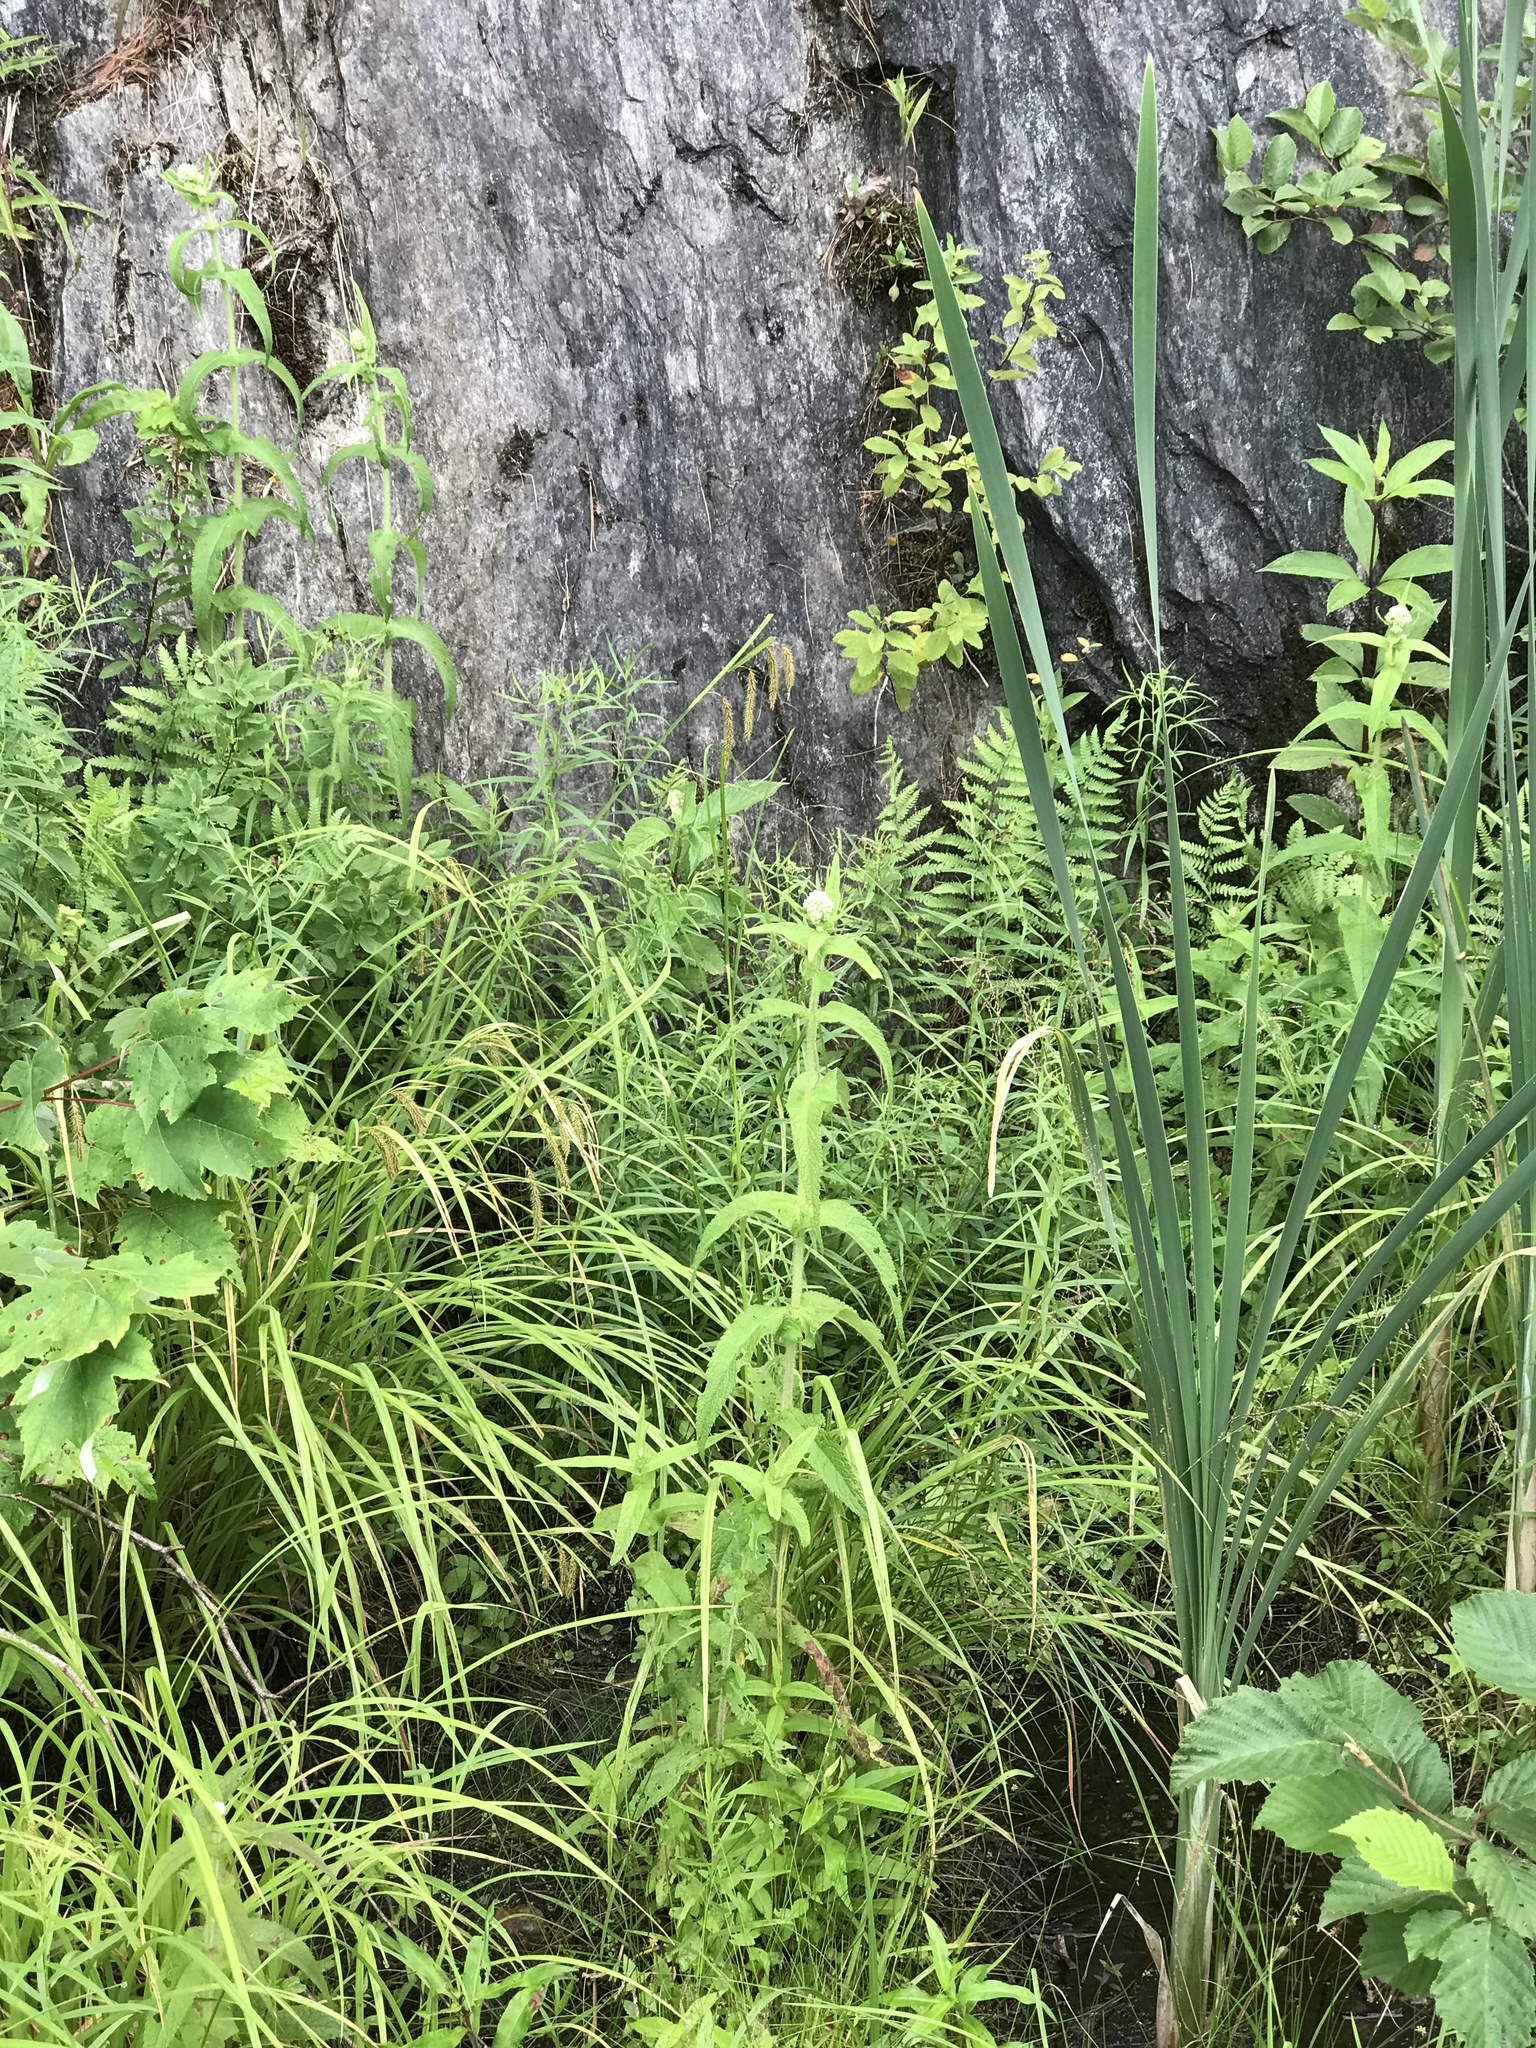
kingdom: Plantae
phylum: Tracheophyta
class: Magnoliopsida
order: Asterales
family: Asteraceae
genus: Eupatorium
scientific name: Eupatorium perfoliatum
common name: Boneset
